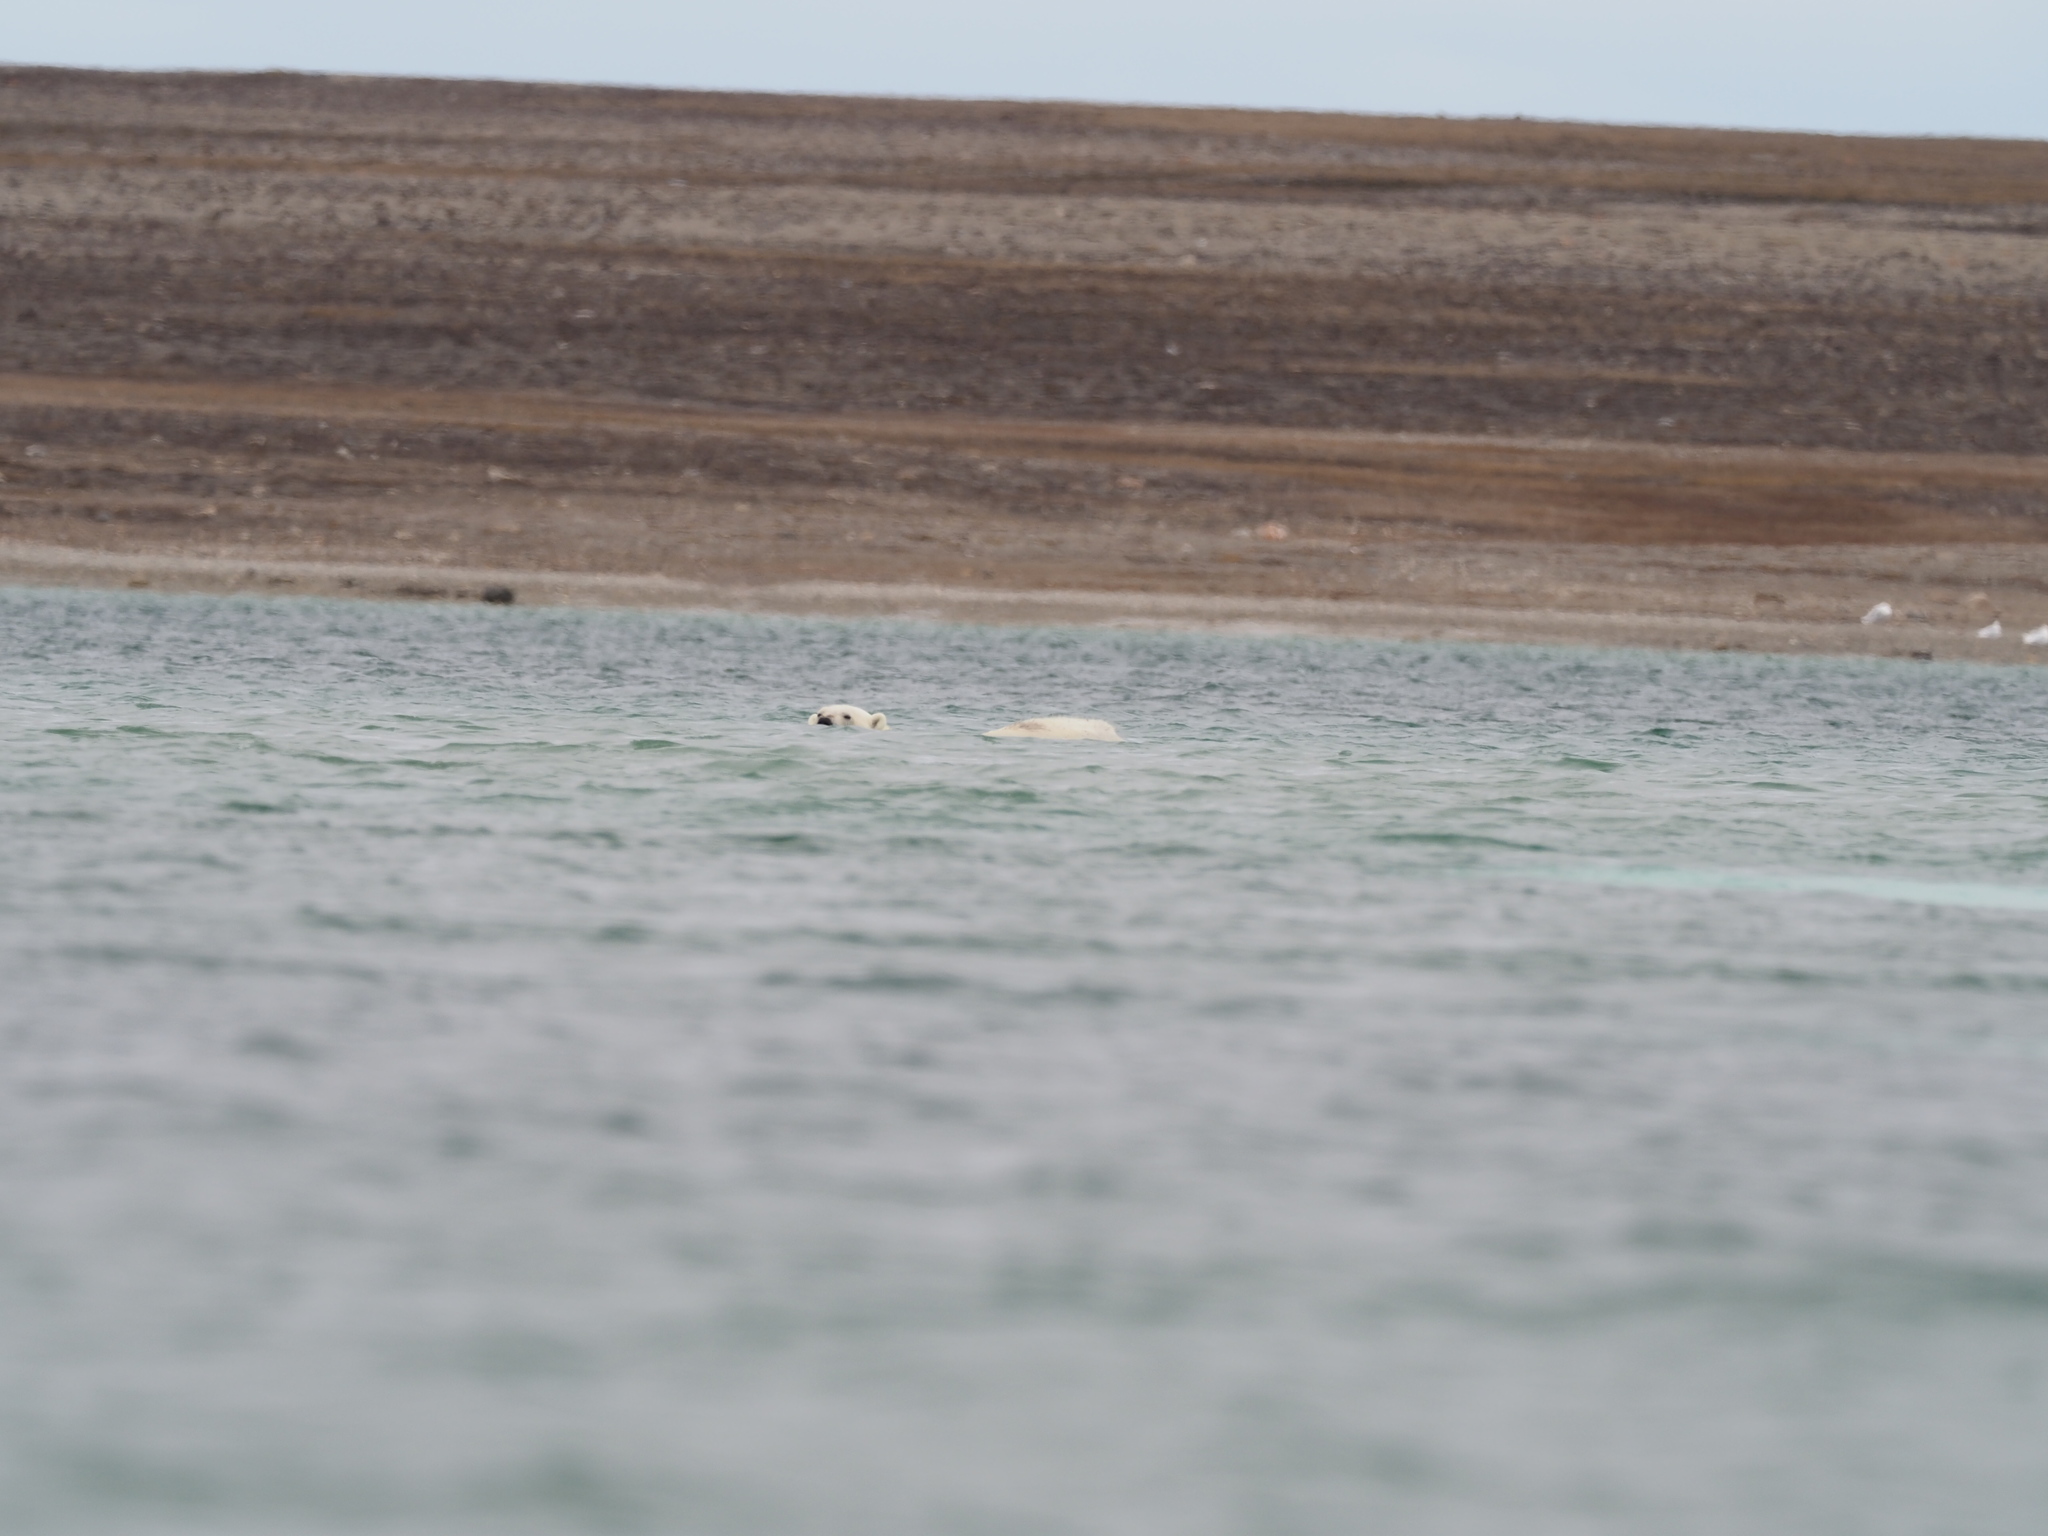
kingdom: Animalia
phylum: Chordata
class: Mammalia
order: Carnivora
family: Ursidae
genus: Ursus
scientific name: Ursus maritimus
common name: Polar bear
